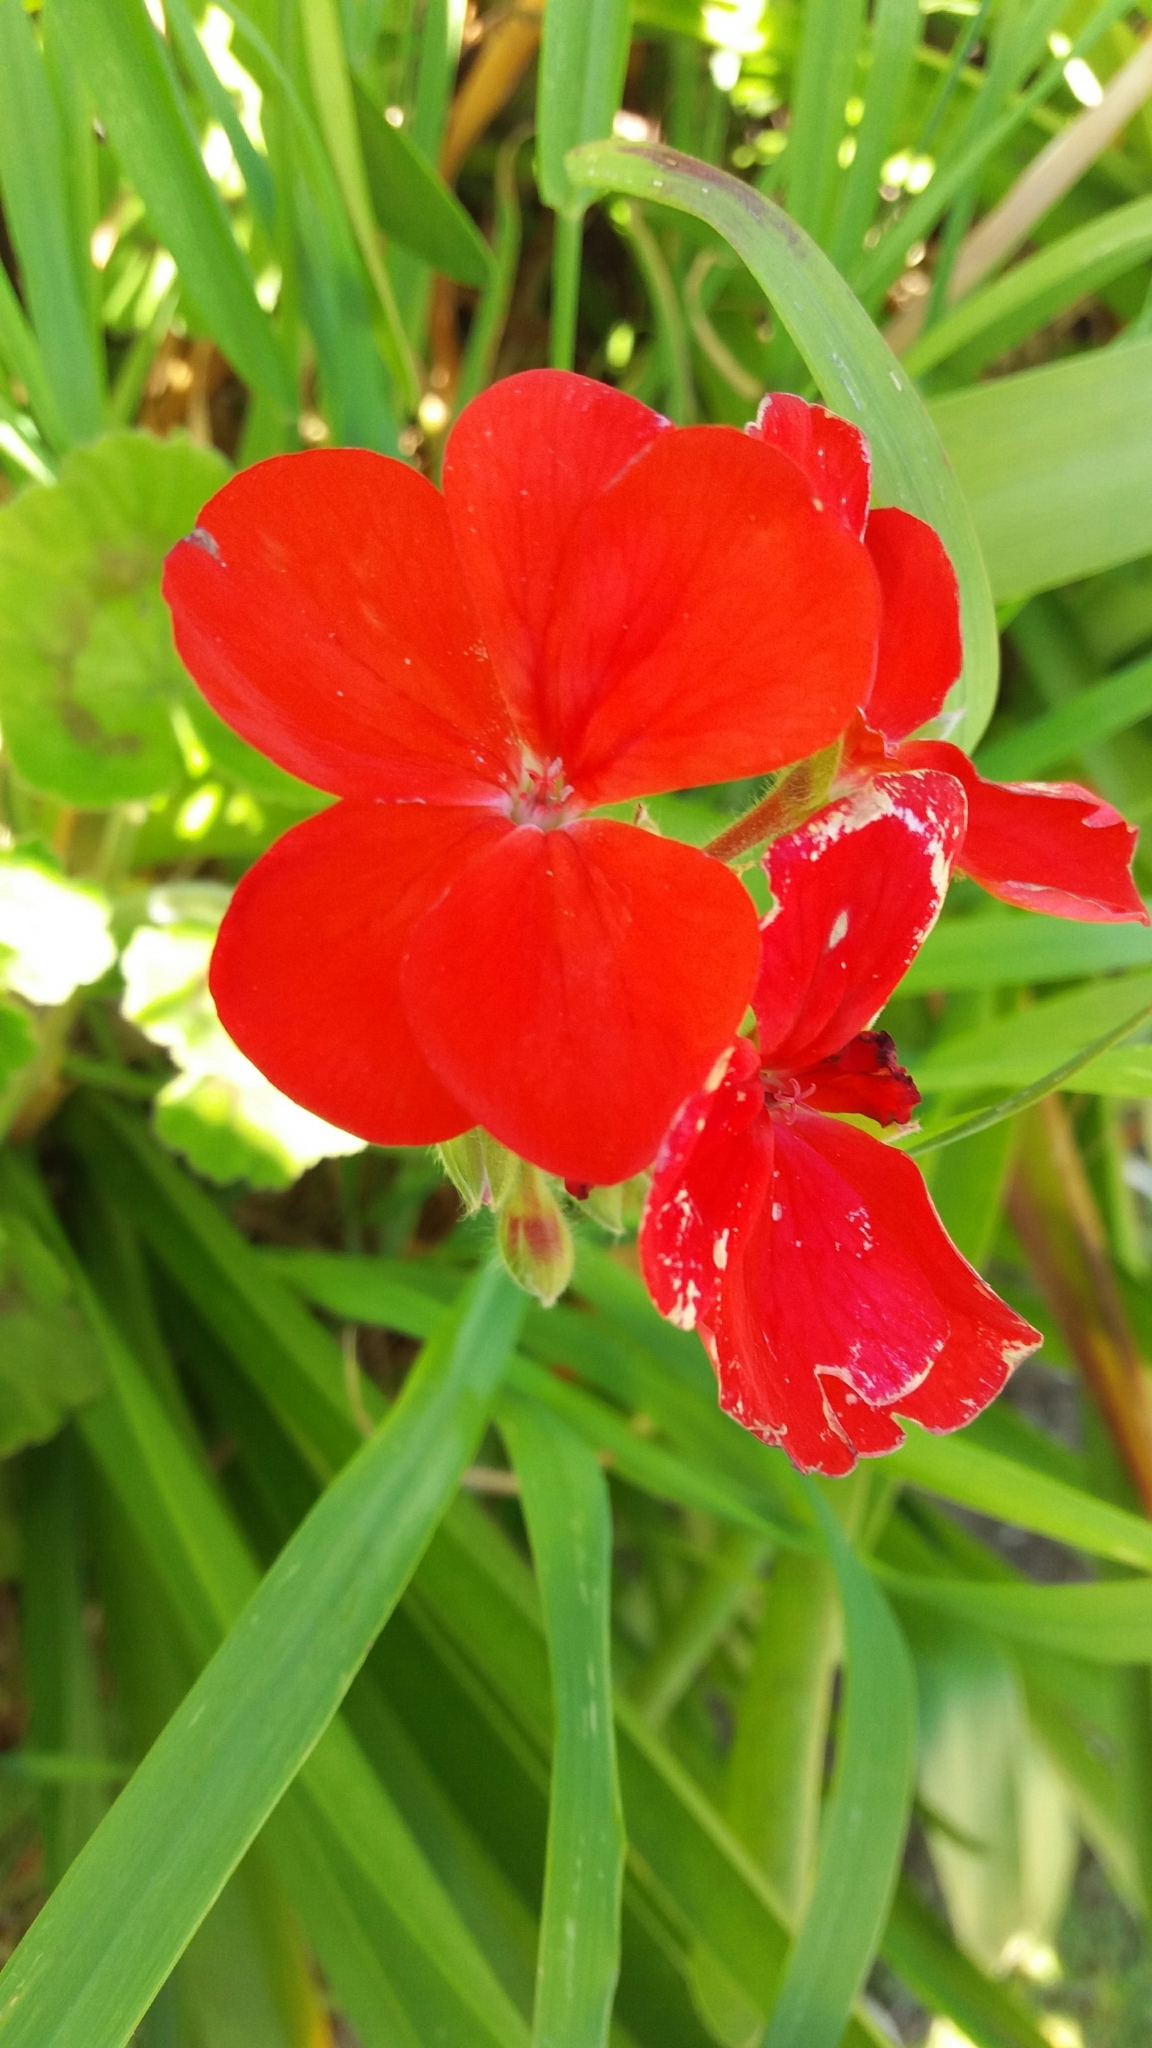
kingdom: Plantae
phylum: Tracheophyta
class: Magnoliopsida
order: Geraniales
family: Geraniaceae
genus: Pelargonium
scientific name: Pelargonium hybridum
